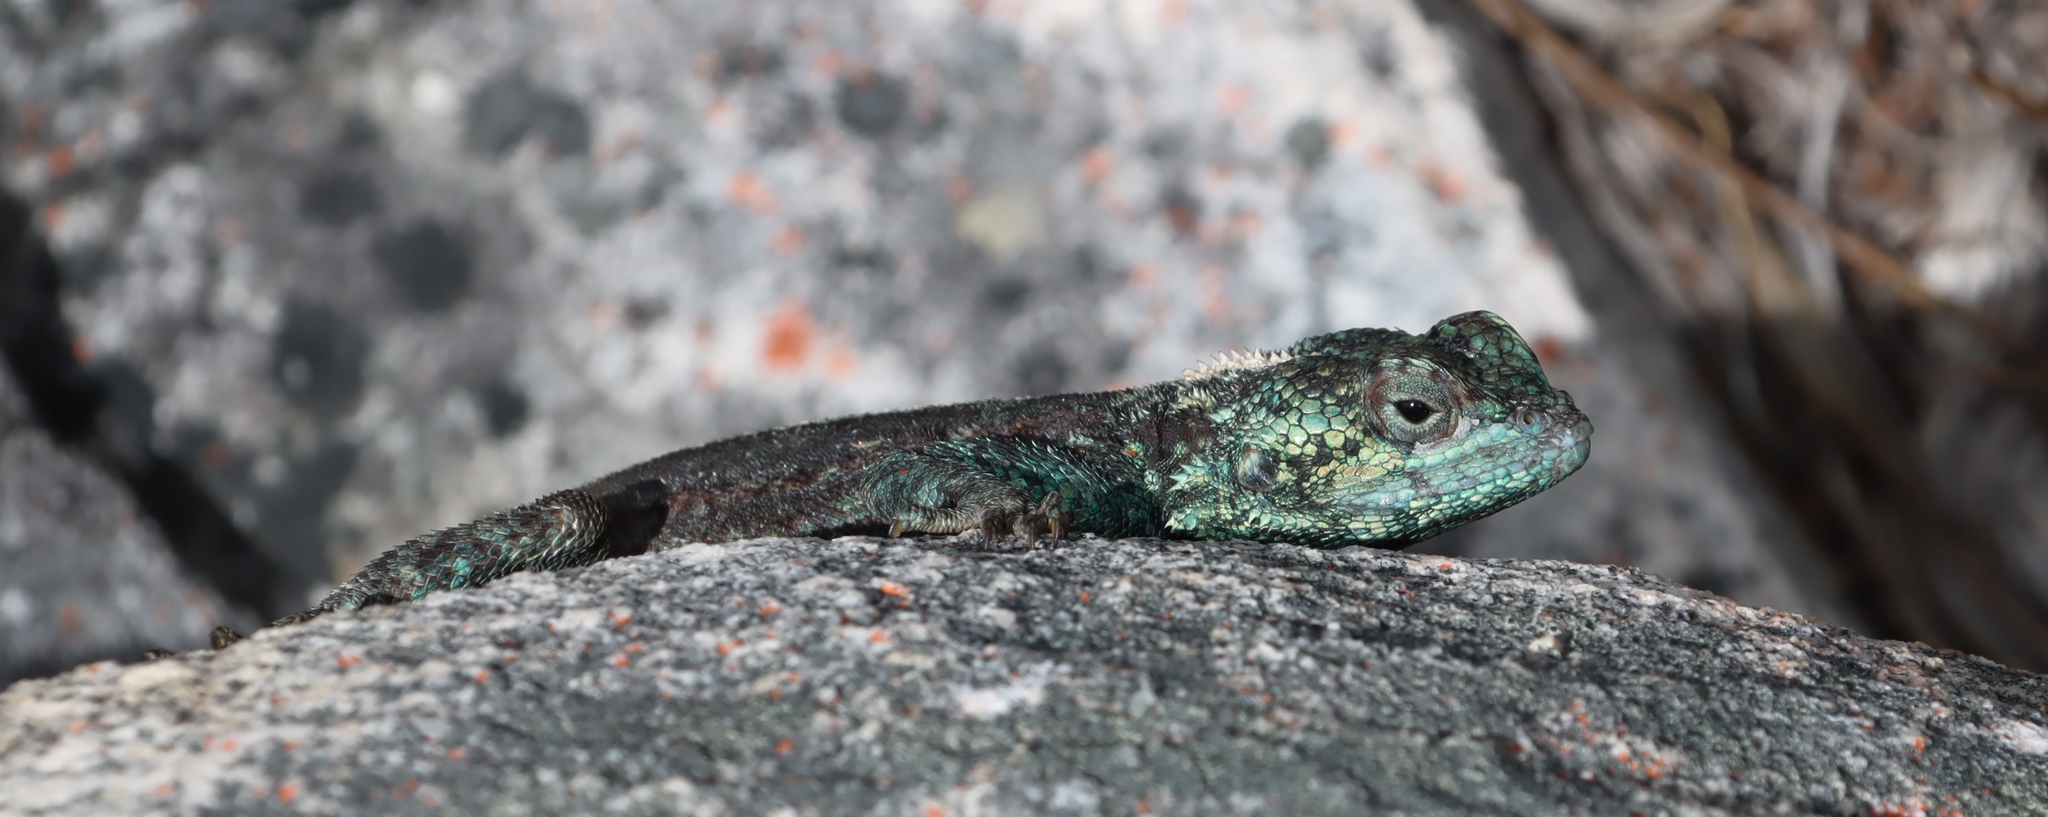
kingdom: Animalia
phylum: Chordata
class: Squamata
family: Agamidae
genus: Agama
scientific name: Agama atra
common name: Southern african rock agama
